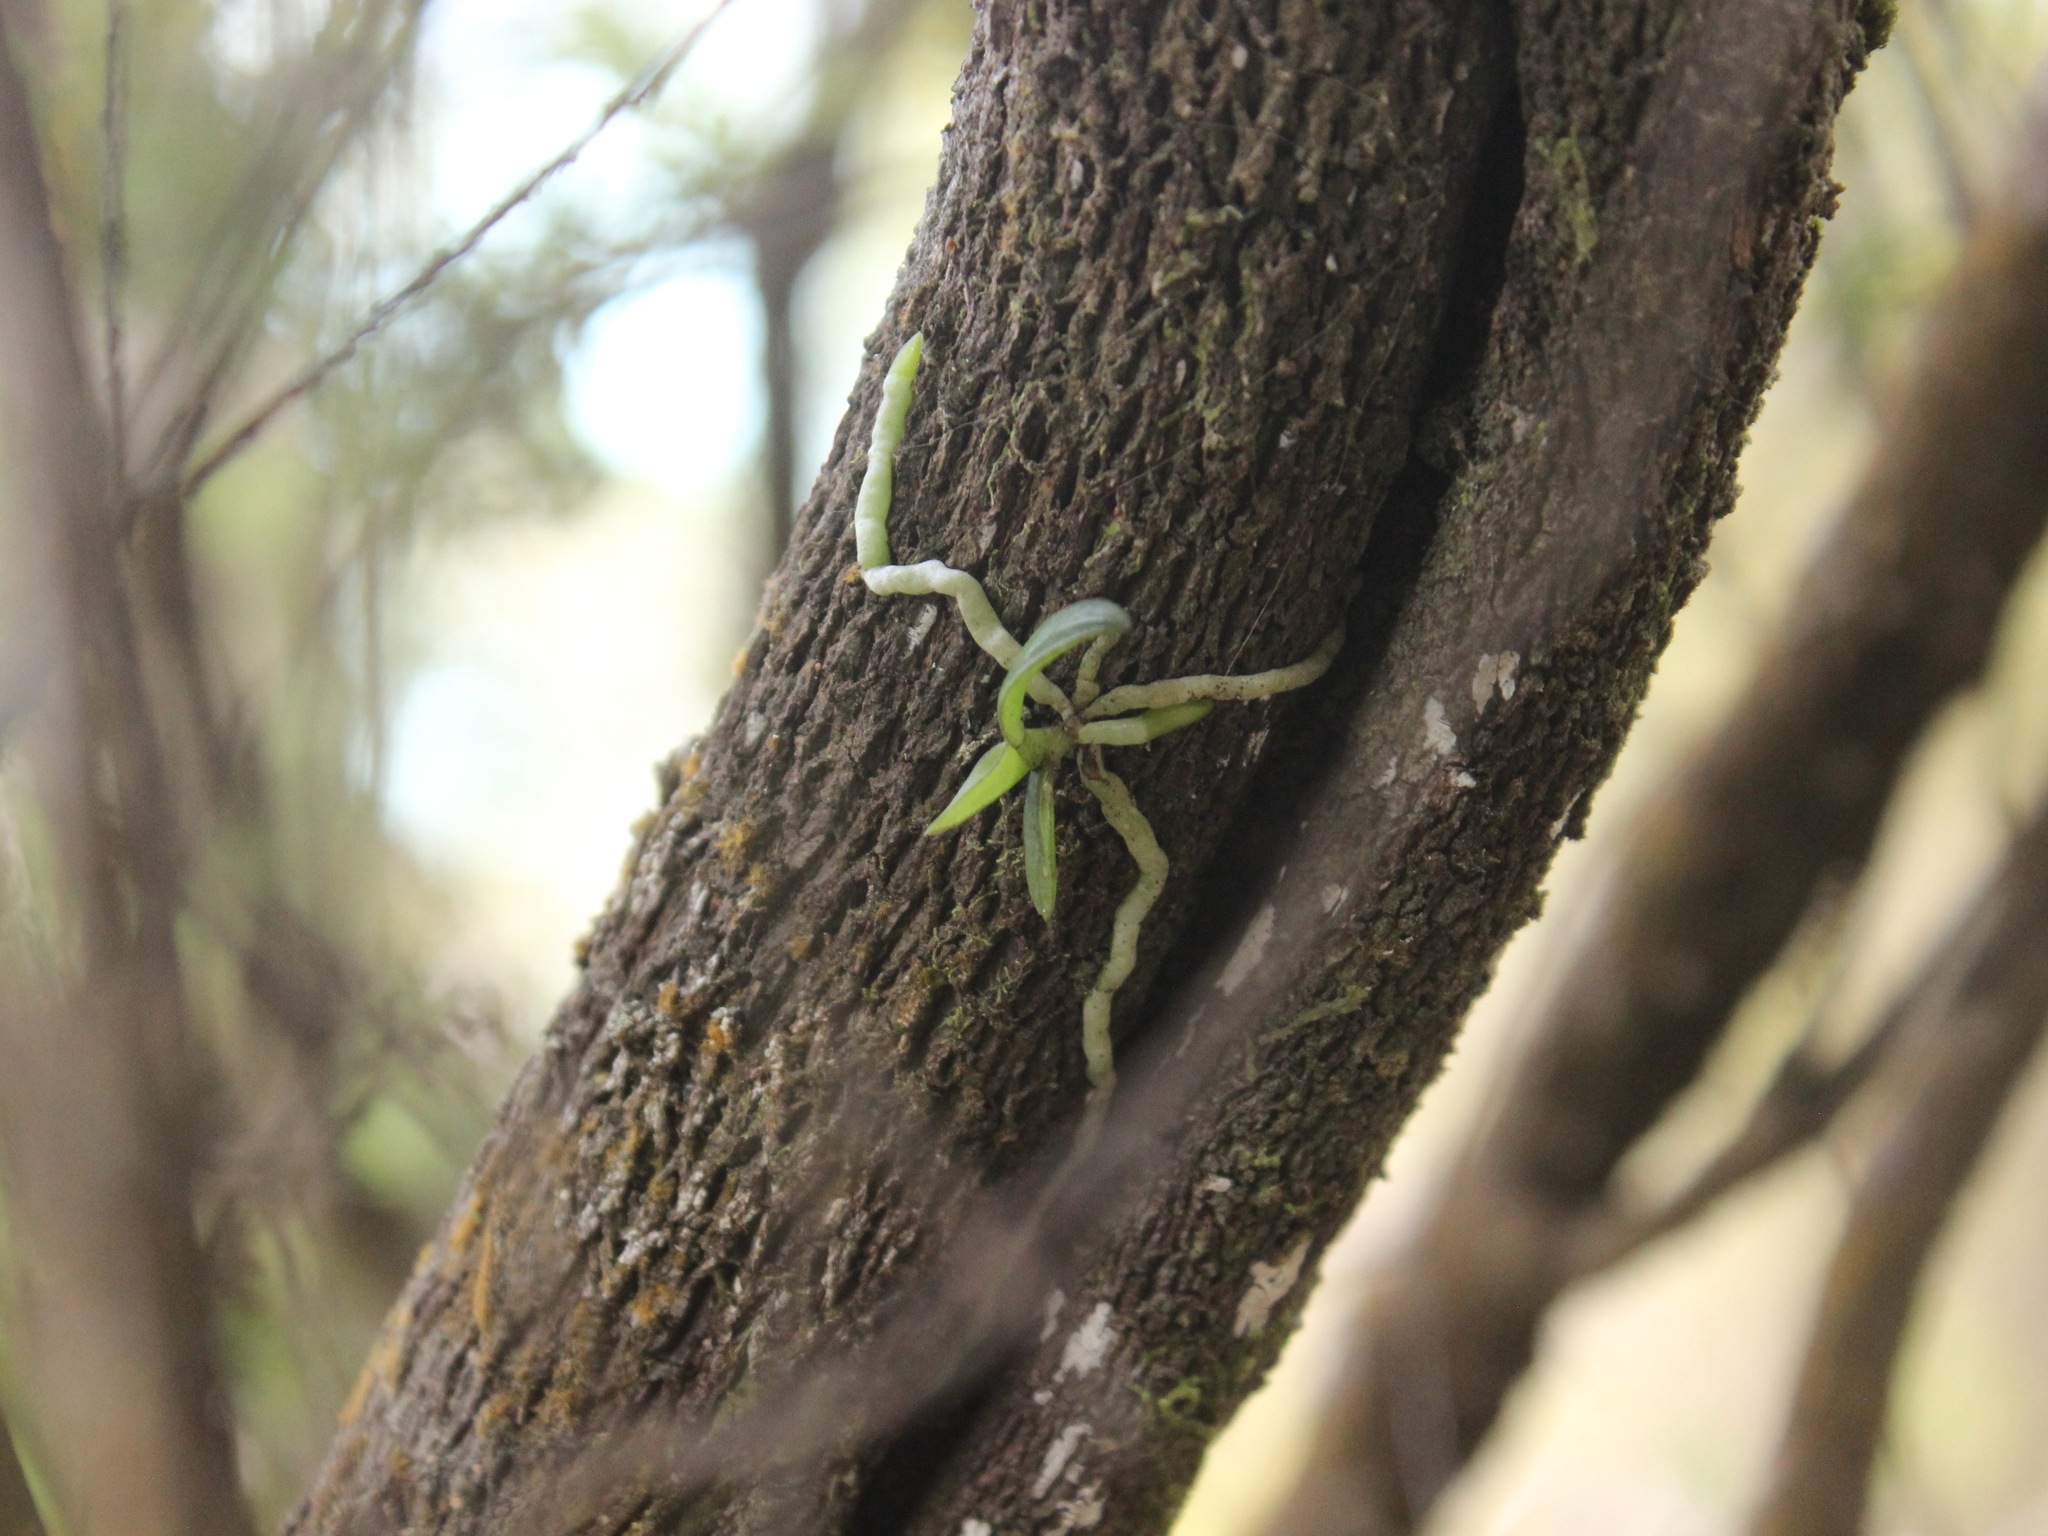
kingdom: Plantae
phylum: Tracheophyta
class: Liliopsida
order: Asparagales
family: Orchidaceae
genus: Drymoanthus
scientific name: Drymoanthus adversus
